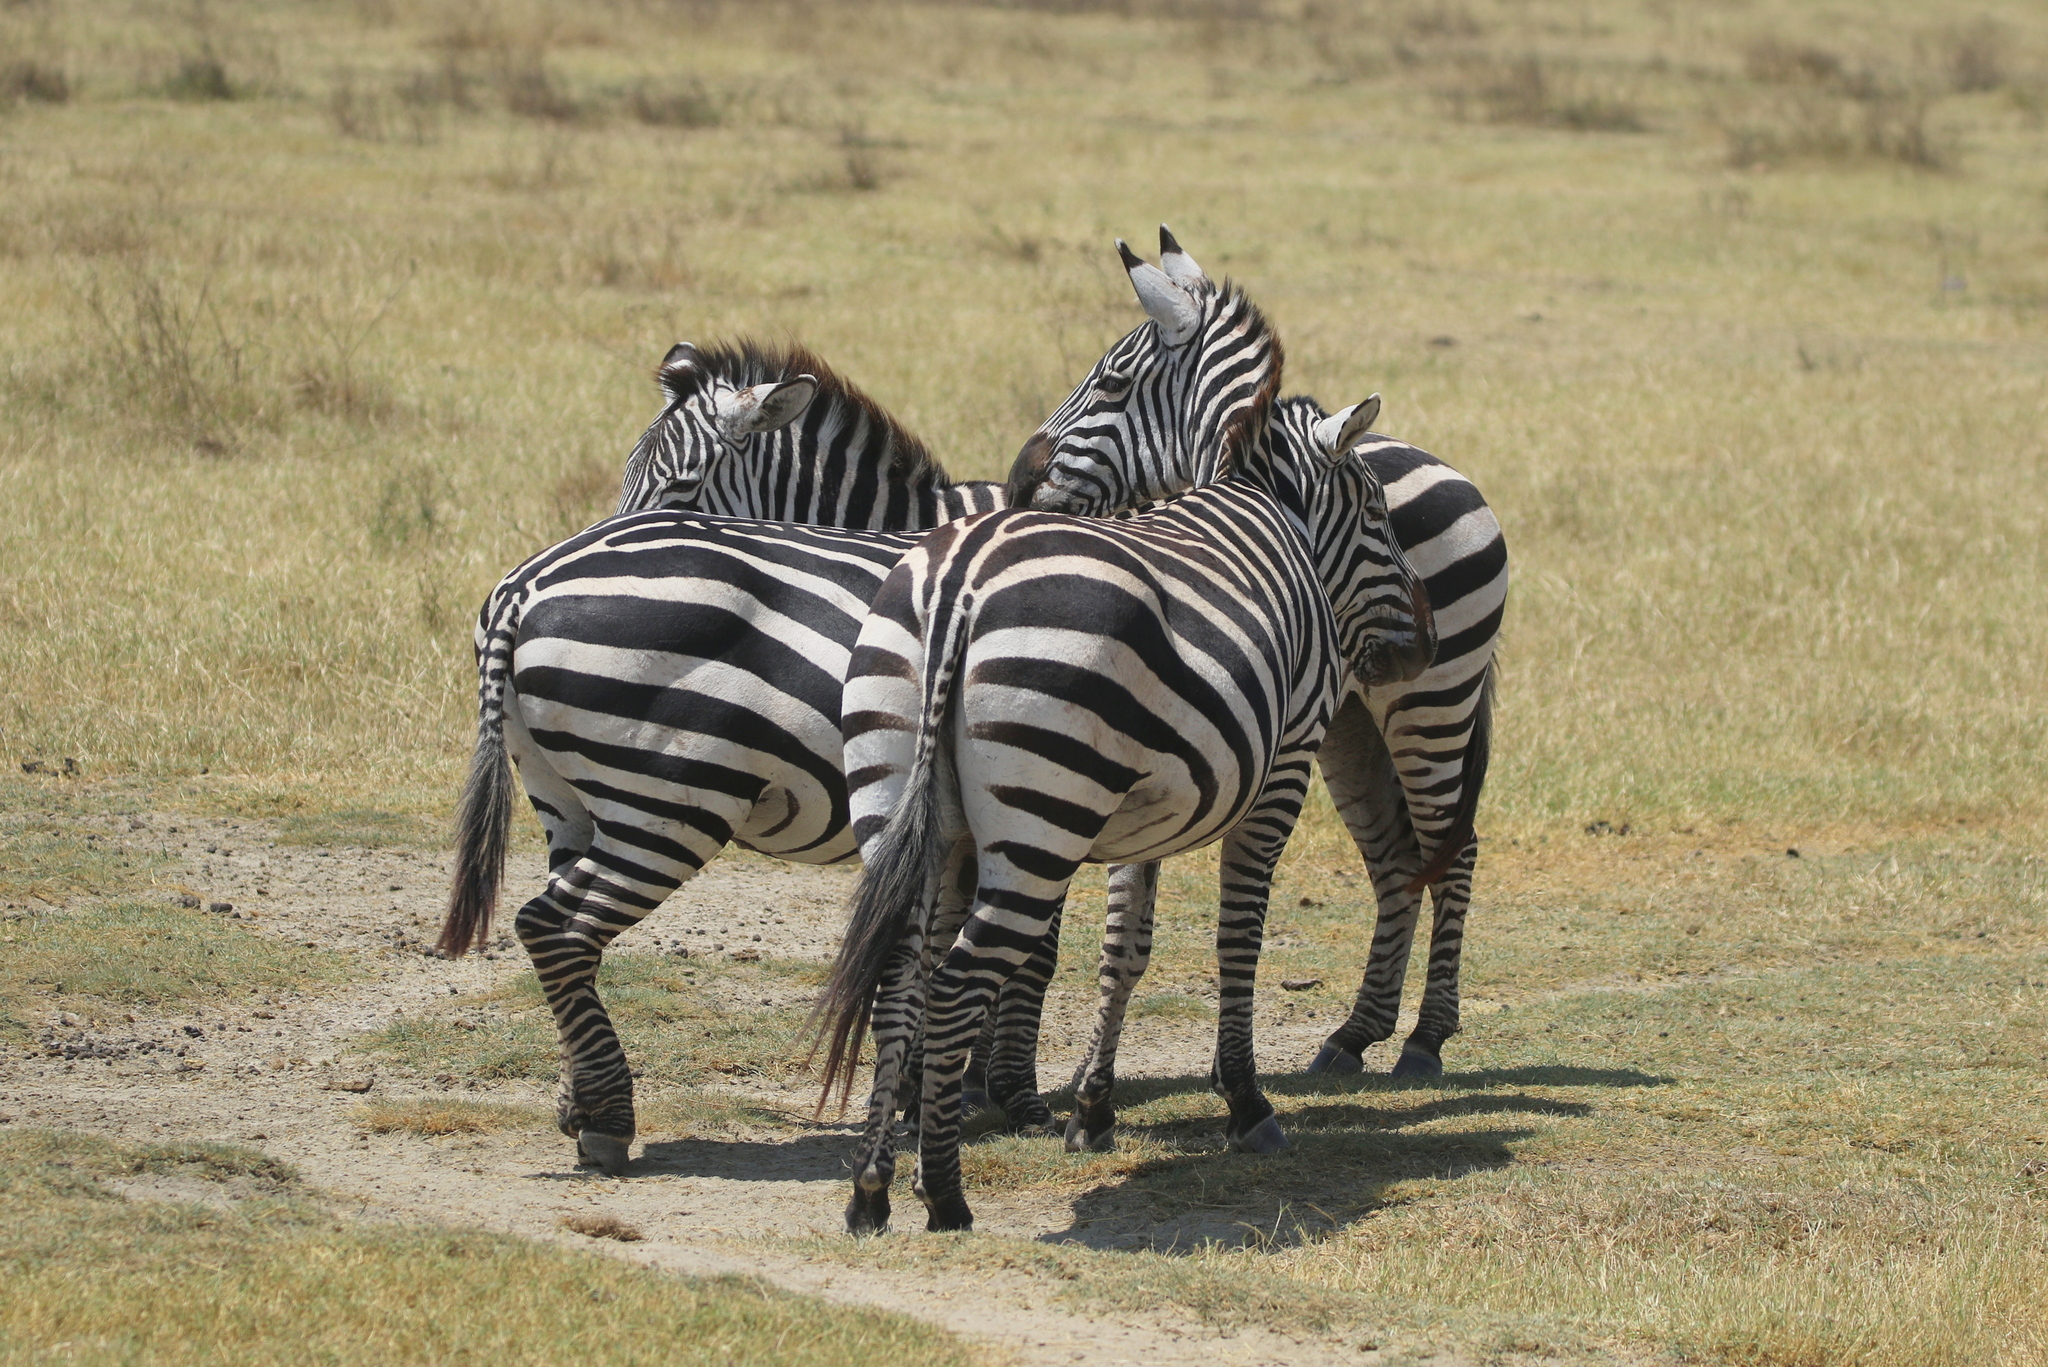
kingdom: Animalia
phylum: Chordata
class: Mammalia
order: Perissodactyla
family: Equidae
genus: Equus
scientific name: Equus quagga
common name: Plains zebra
